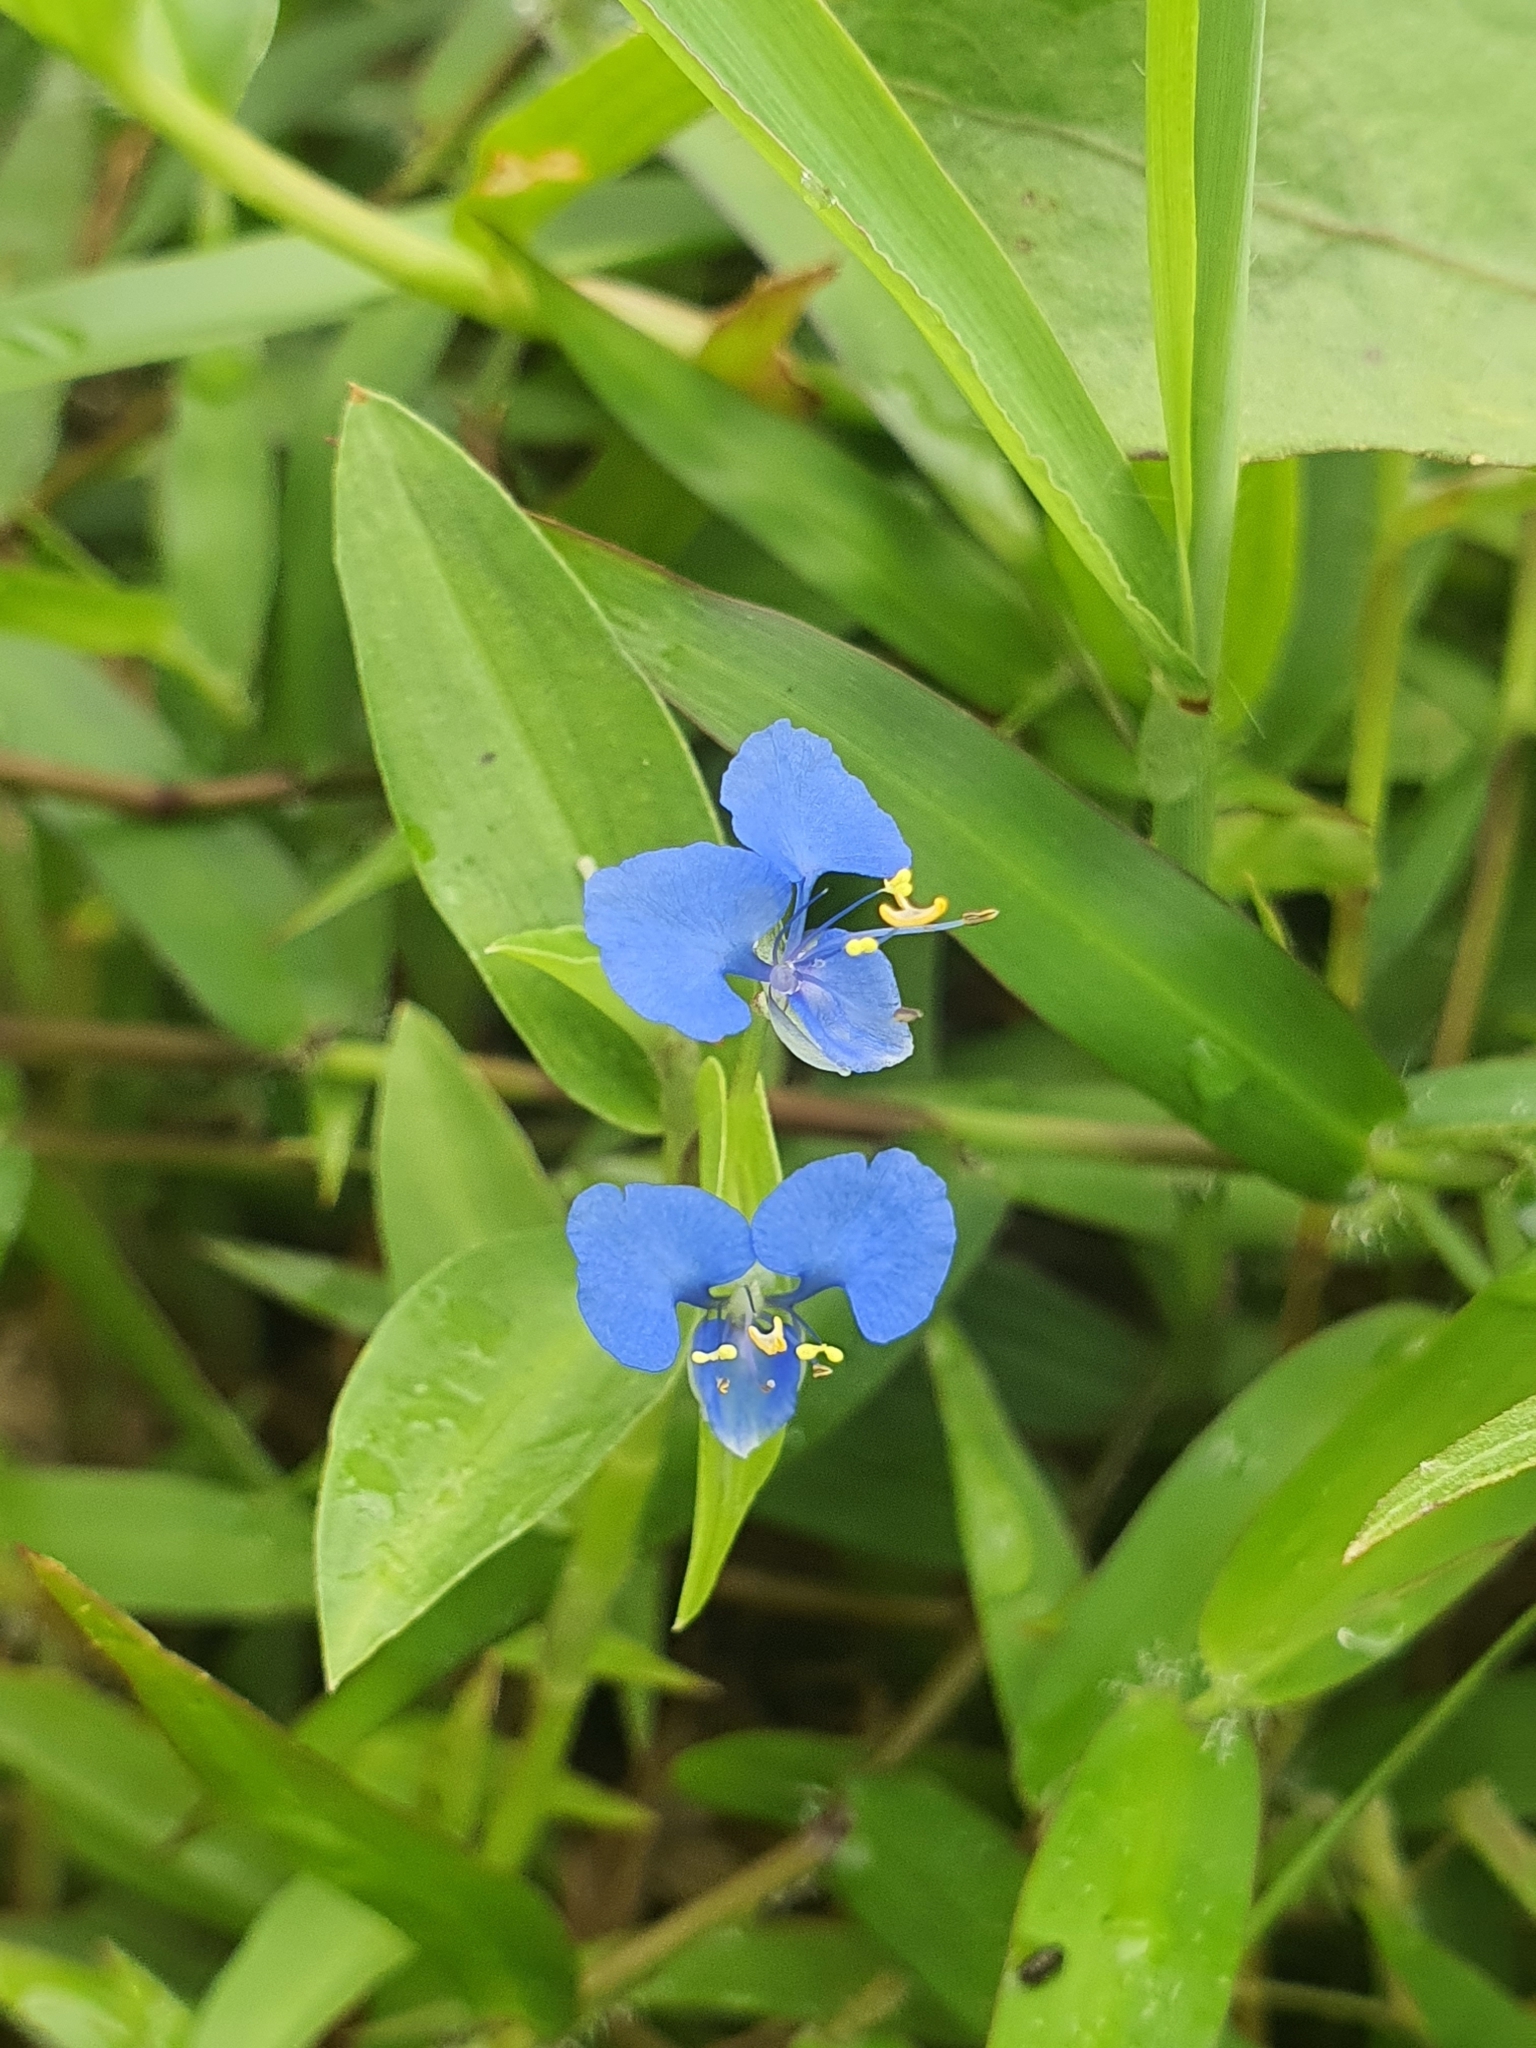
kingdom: Plantae
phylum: Tracheophyta
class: Liliopsida
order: Commelinales
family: Commelinaceae
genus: Commelina
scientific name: Commelina diffusa
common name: Climbing dayflower
